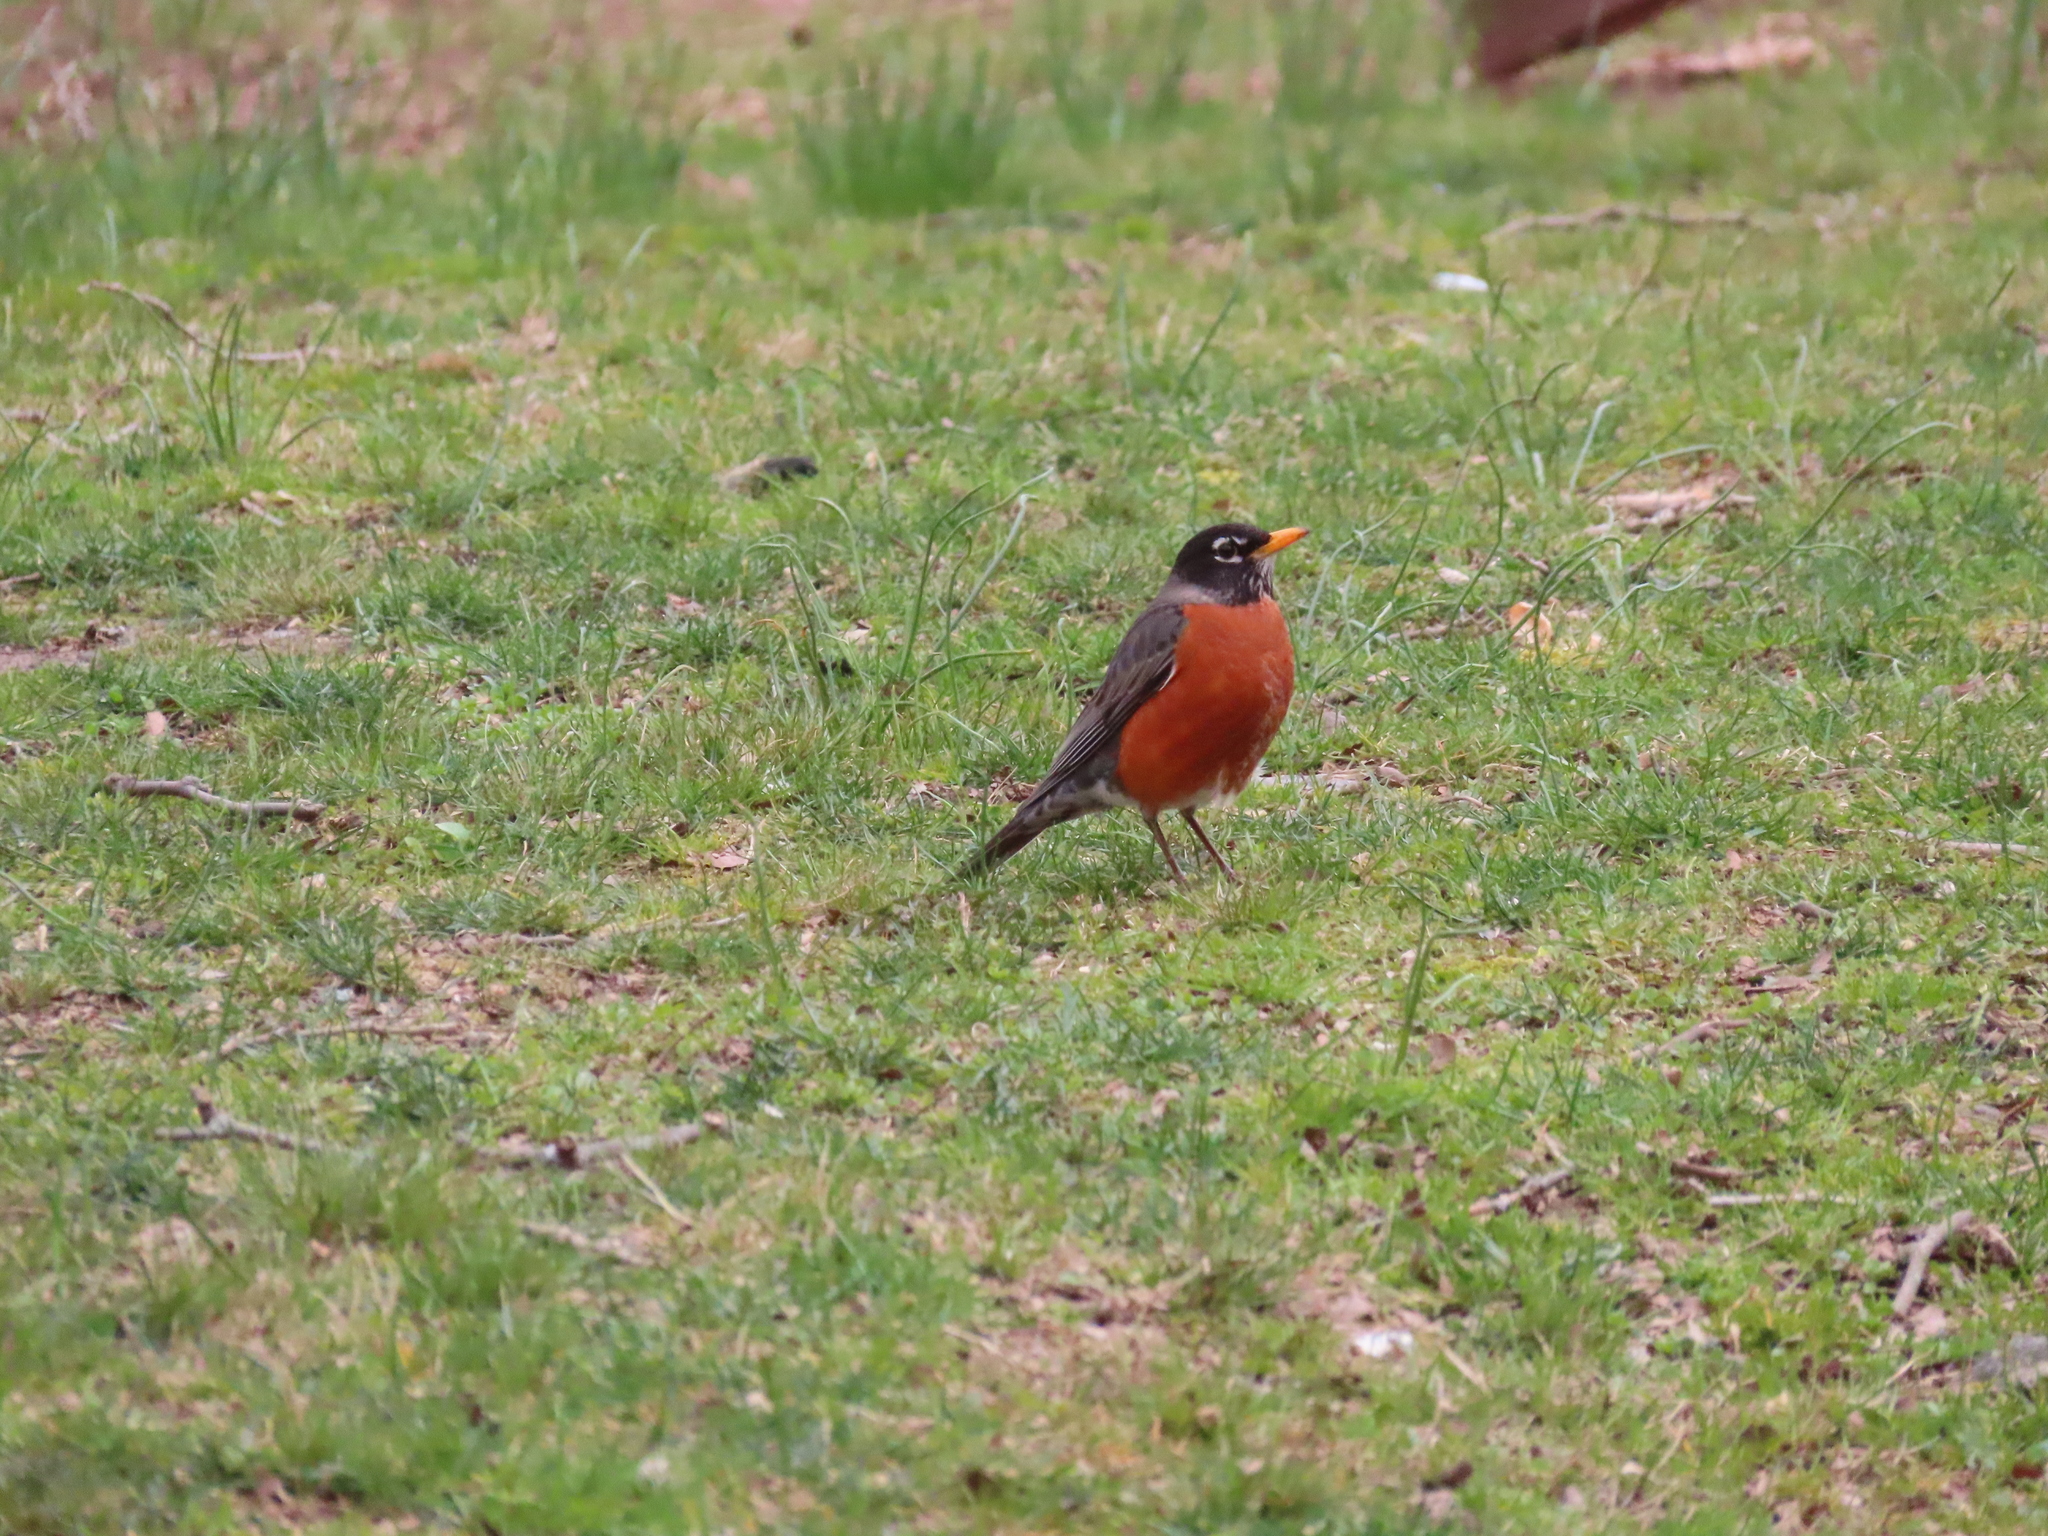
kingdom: Animalia
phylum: Chordata
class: Aves
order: Passeriformes
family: Turdidae
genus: Turdus
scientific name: Turdus migratorius
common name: American robin
